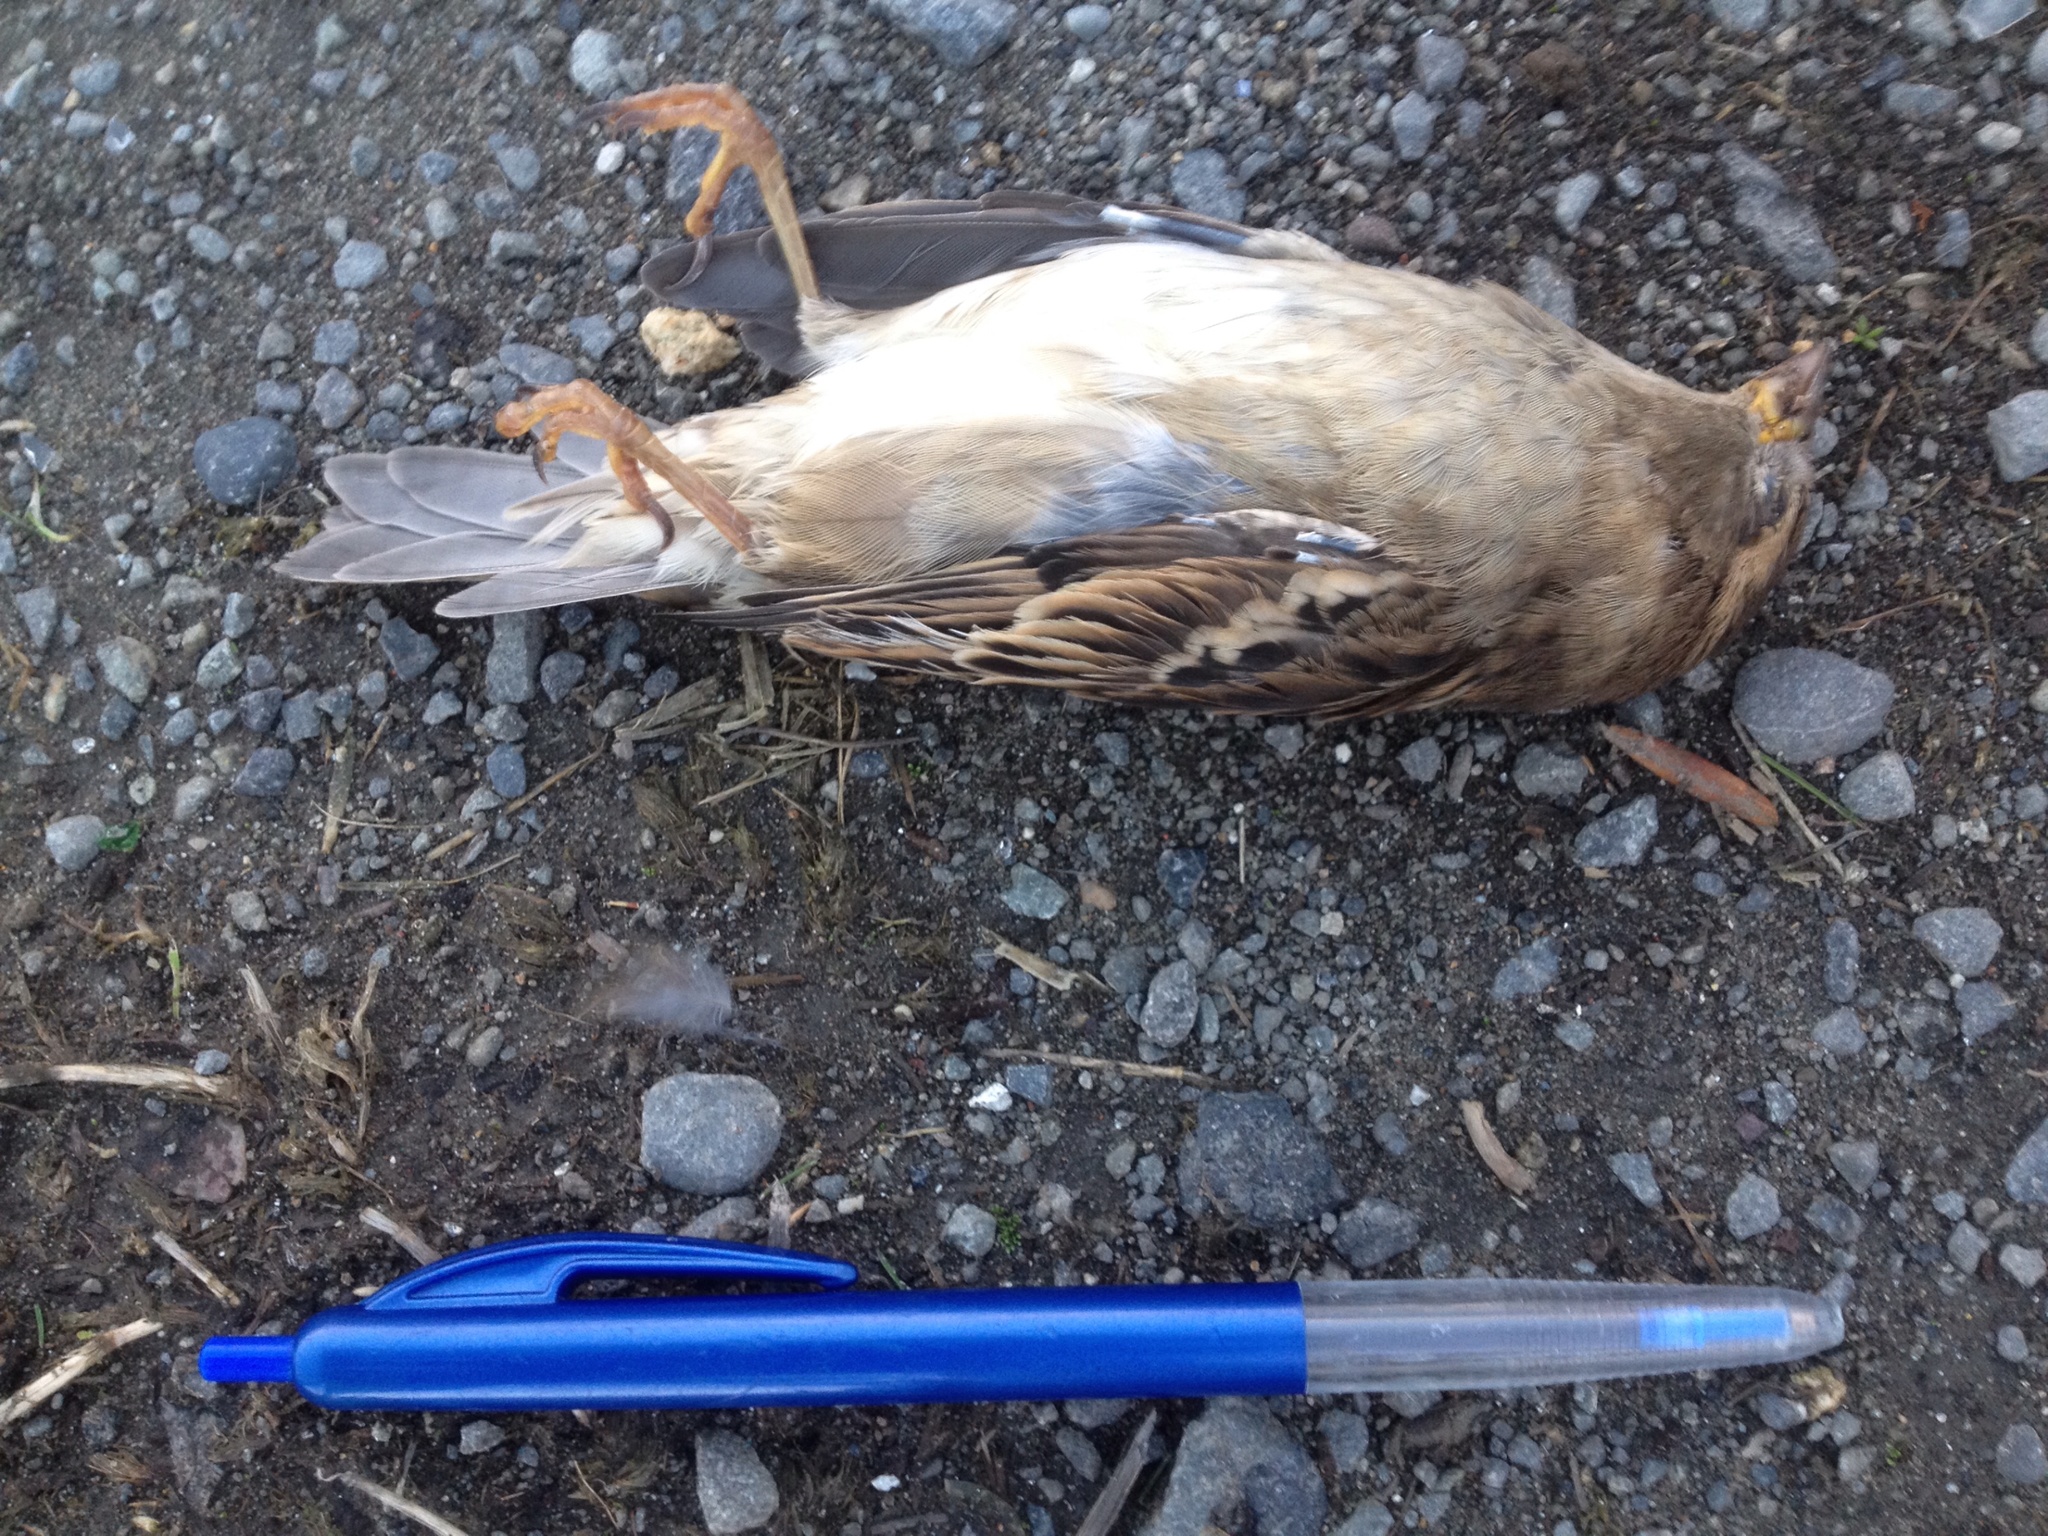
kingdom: Animalia
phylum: Chordata
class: Aves
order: Passeriformes
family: Passeridae
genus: Passer
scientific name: Passer domesticus
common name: House sparrow
